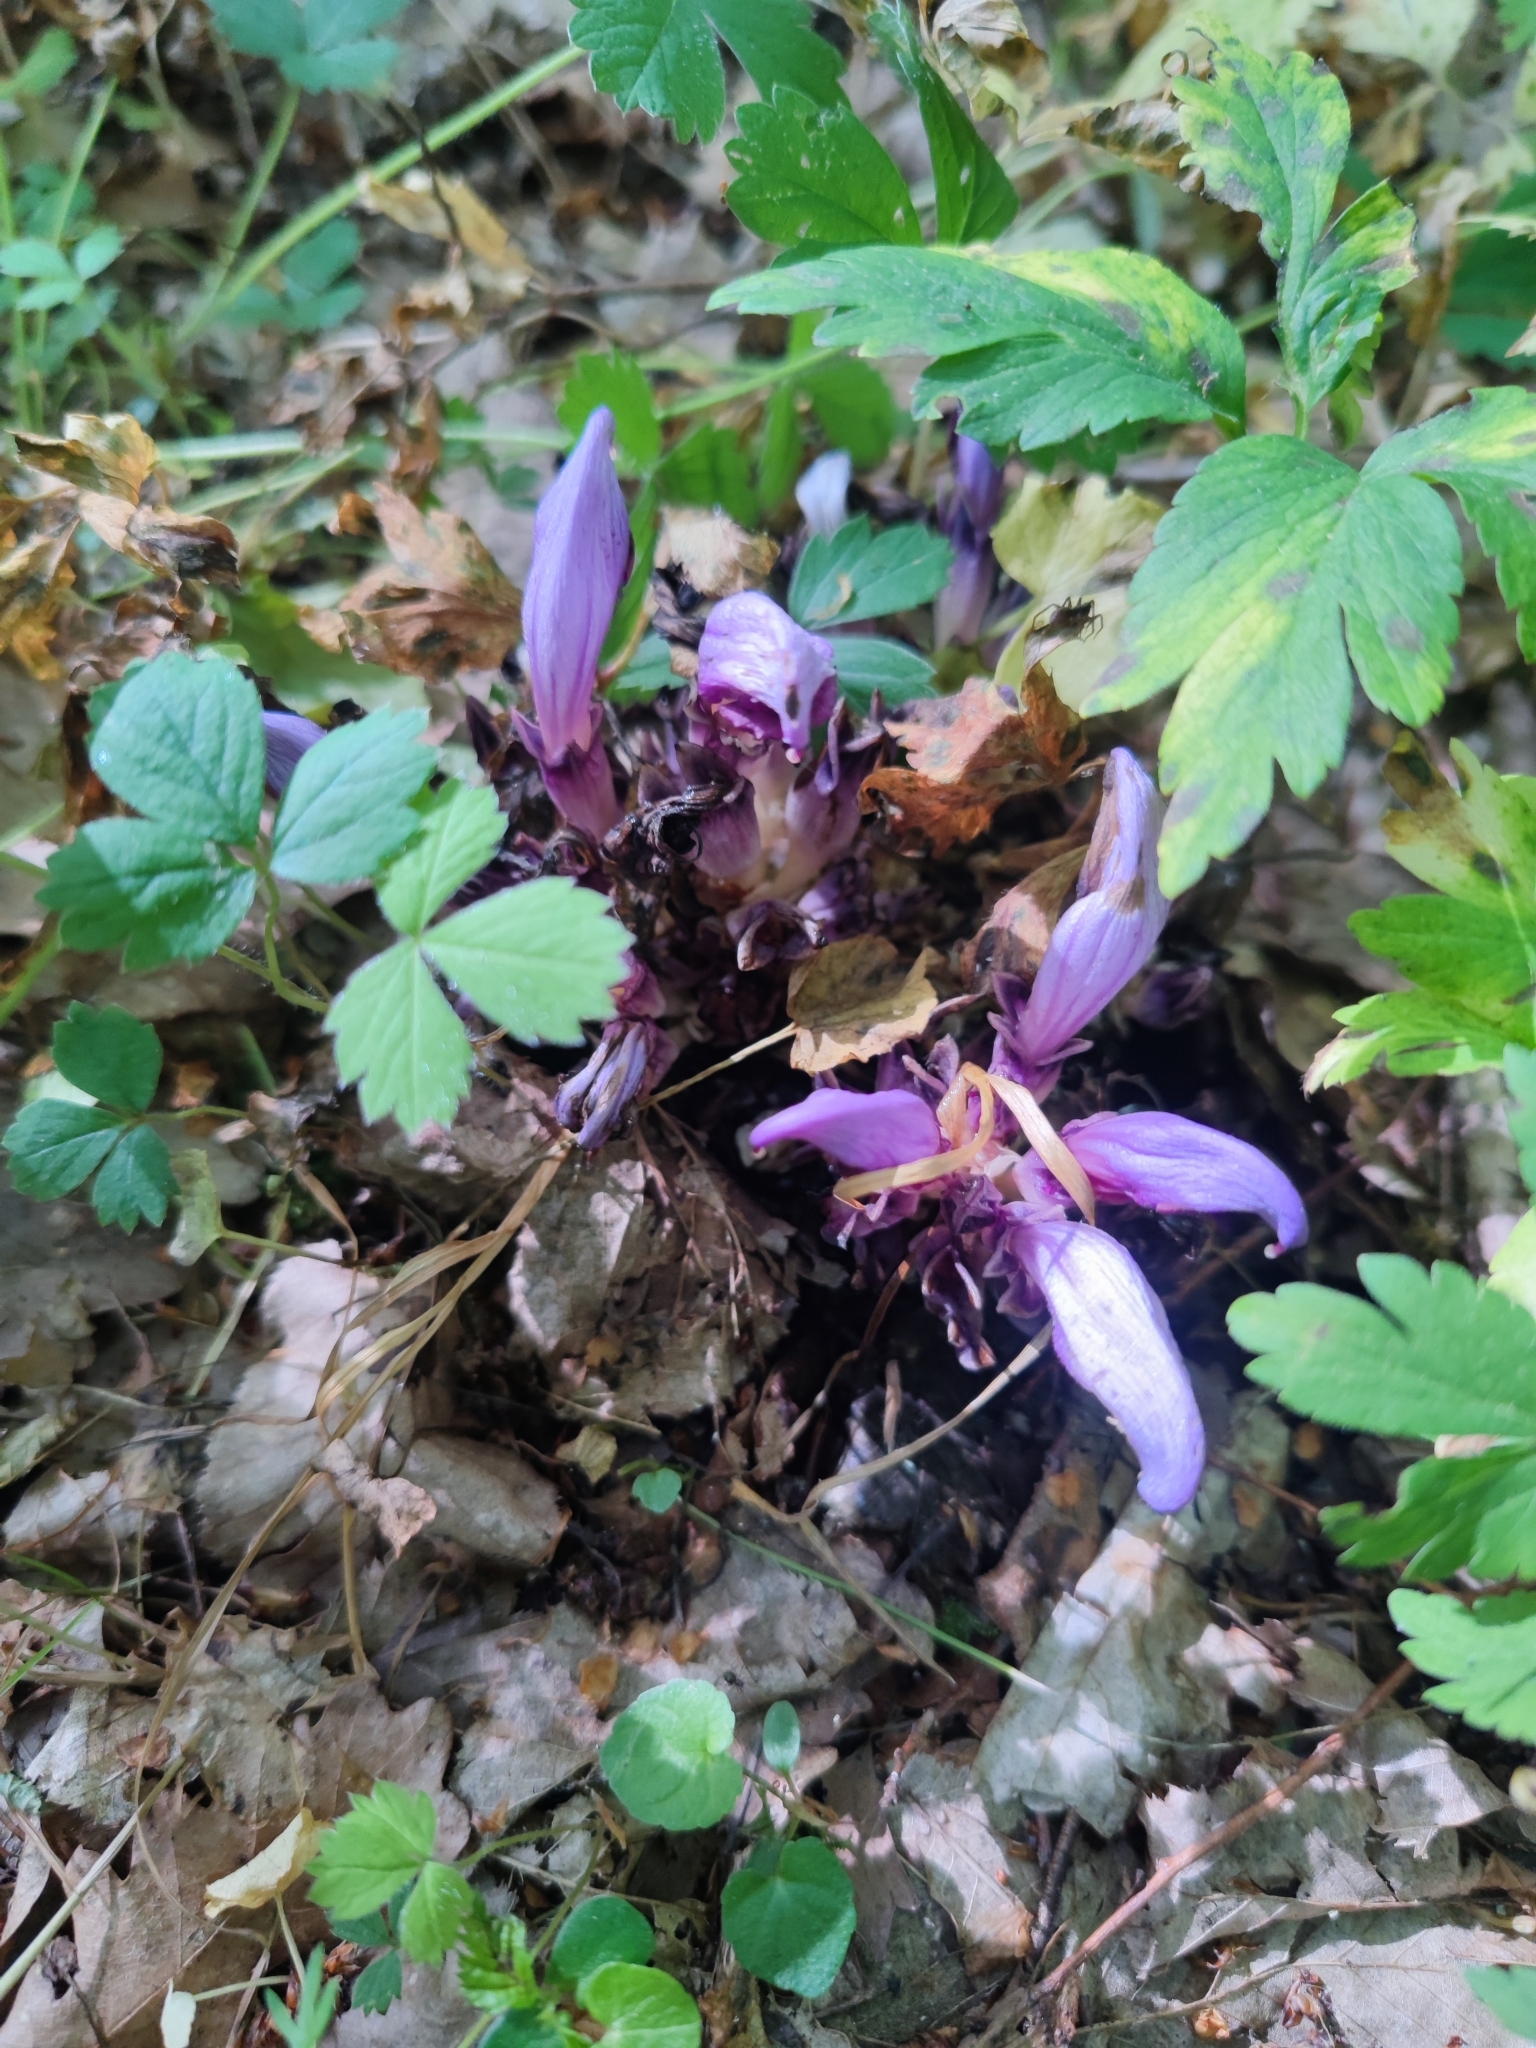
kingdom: Plantae
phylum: Tracheophyta
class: Magnoliopsida
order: Lamiales
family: Orobanchaceae
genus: Lathraea
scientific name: Lathraea clandestina
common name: Purple toothwort
